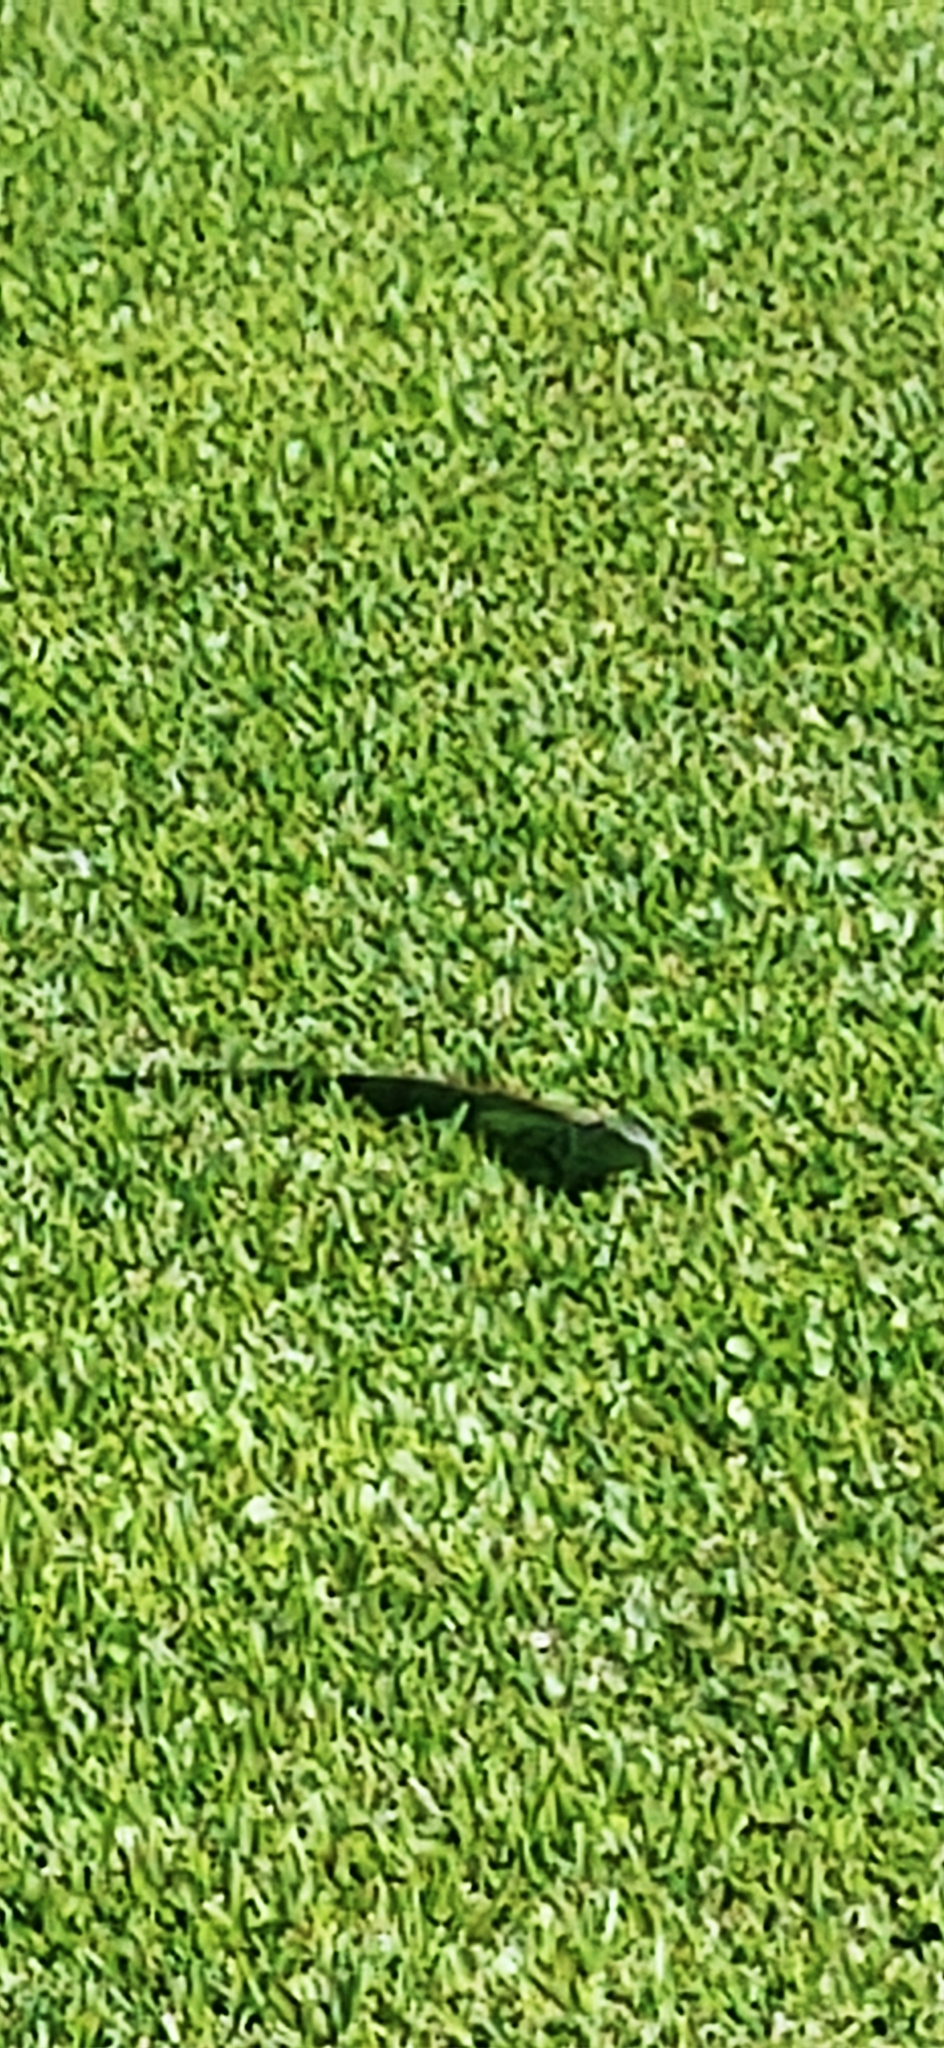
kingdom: Animalia
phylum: Chordata
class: Squamata
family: Iguanidae
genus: Iguana
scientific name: Iguana iguana
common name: Green iguana
